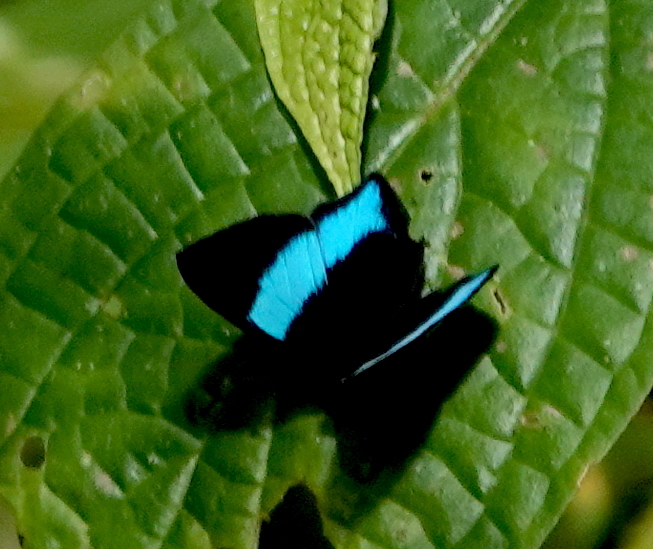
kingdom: Animalia
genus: Mesosemia
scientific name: Mesosemia grandis
